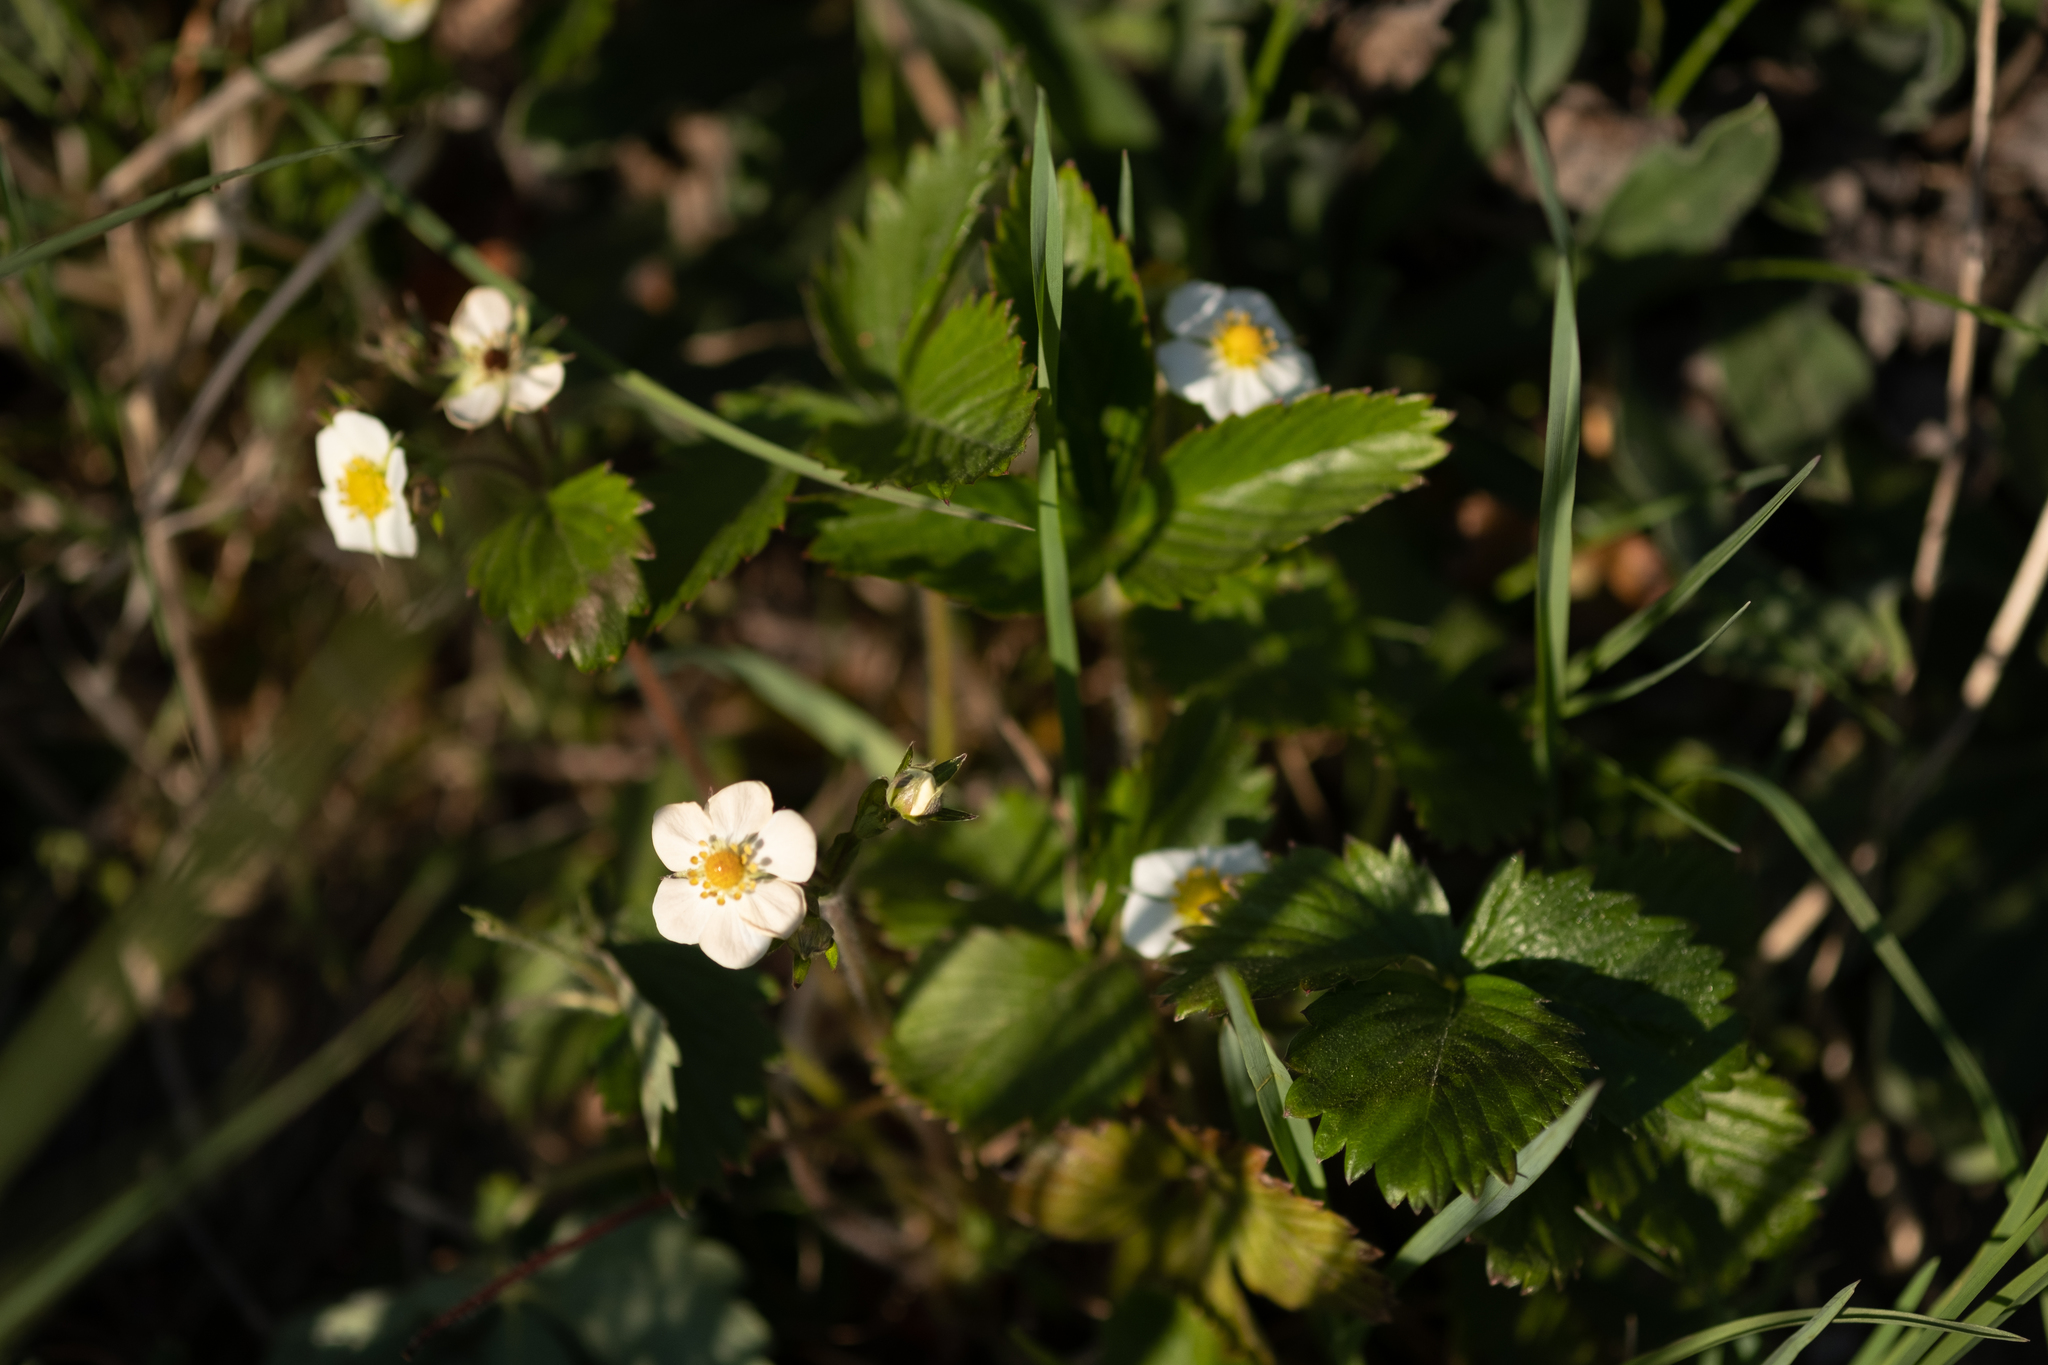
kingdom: Plantae
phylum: Tracheophyta
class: Magnoliopsida
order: Rosales
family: Rosaceae
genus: Fragaria
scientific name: Fragaria vesca
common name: Wild strawberry
